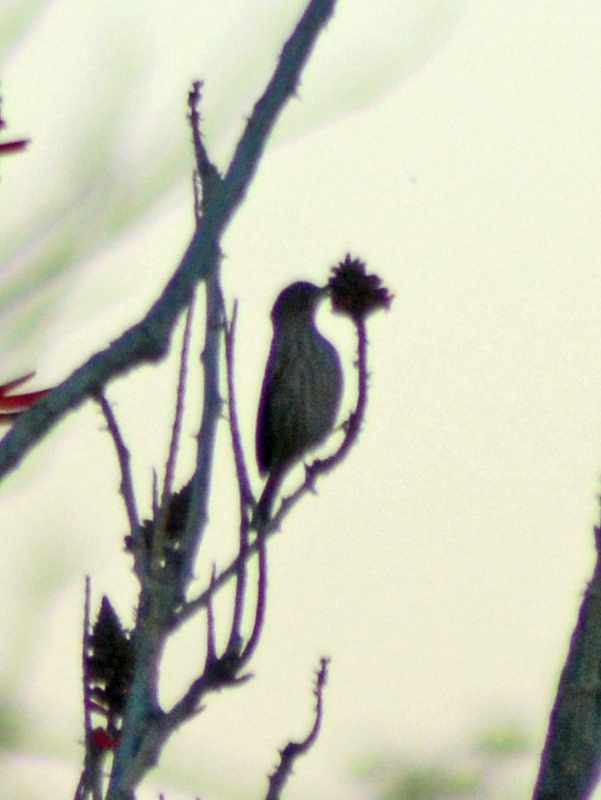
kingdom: Animalia
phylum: Chordata
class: Aves
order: Passeriformes
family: Fringillidae
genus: Haemorhous
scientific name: Haemorhous mexicanus
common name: House finch
